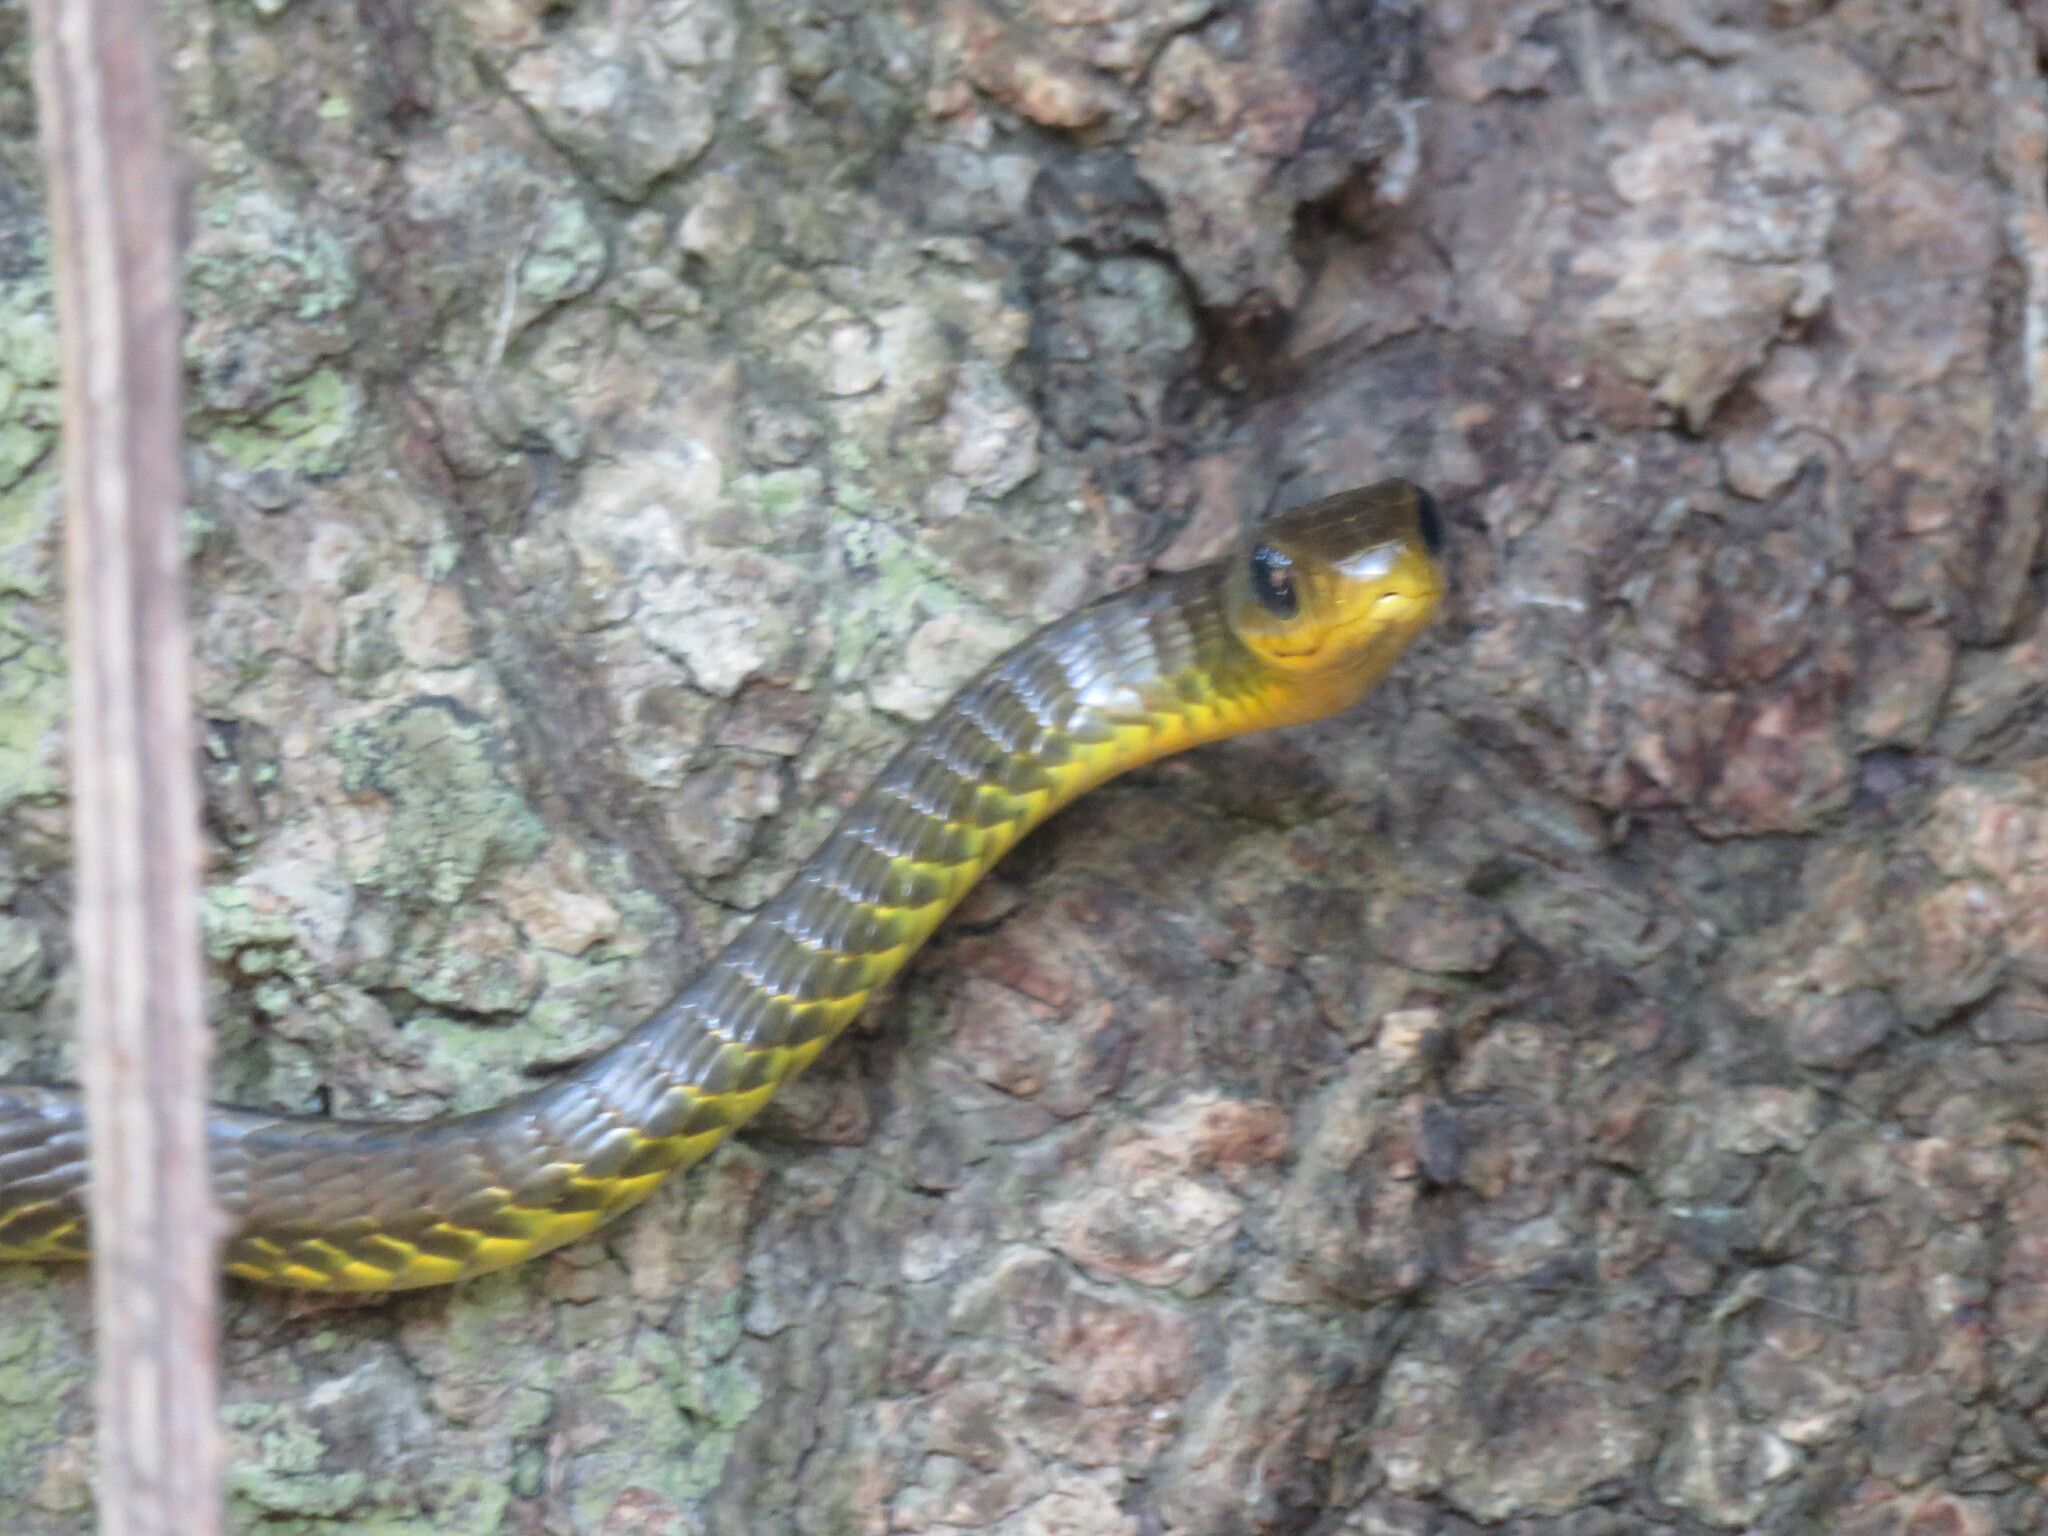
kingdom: Animalia
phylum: Chordata
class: Squamata
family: Colubridae
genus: Chironius
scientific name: Chironius fuscus
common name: Brown sipo
